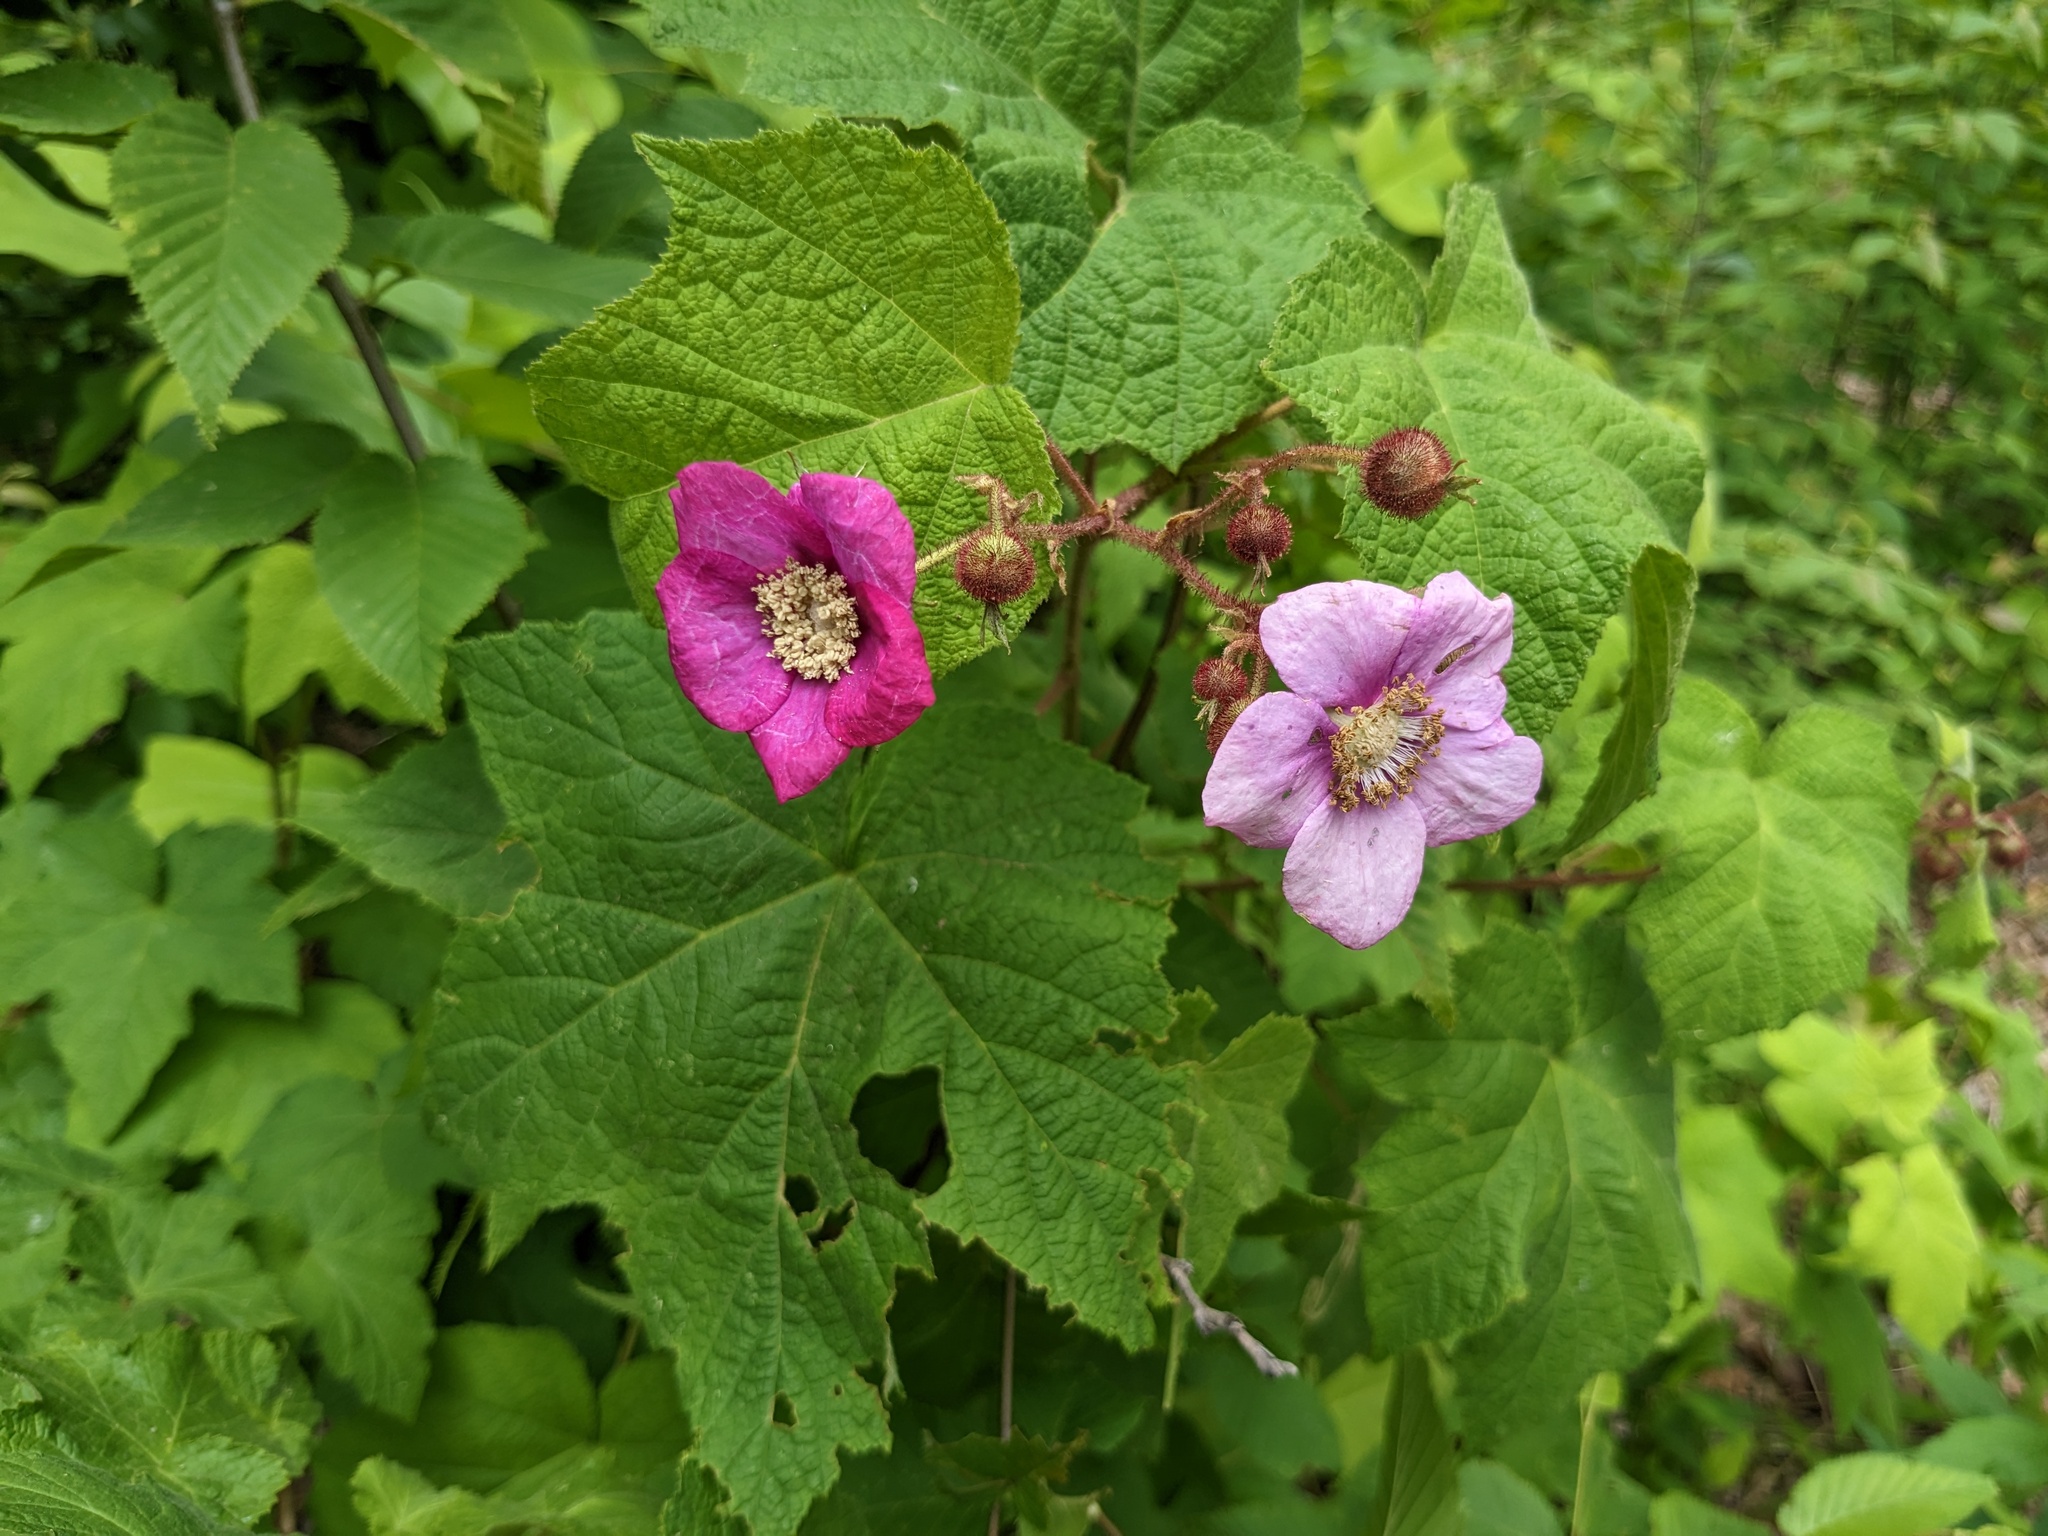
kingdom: Plantae
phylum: Tracheophyta
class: Magnoliopsida
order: Rosales
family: Rosaceae
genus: Rubus
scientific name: Rubus odoratus
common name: Purple-flowered raspberry
